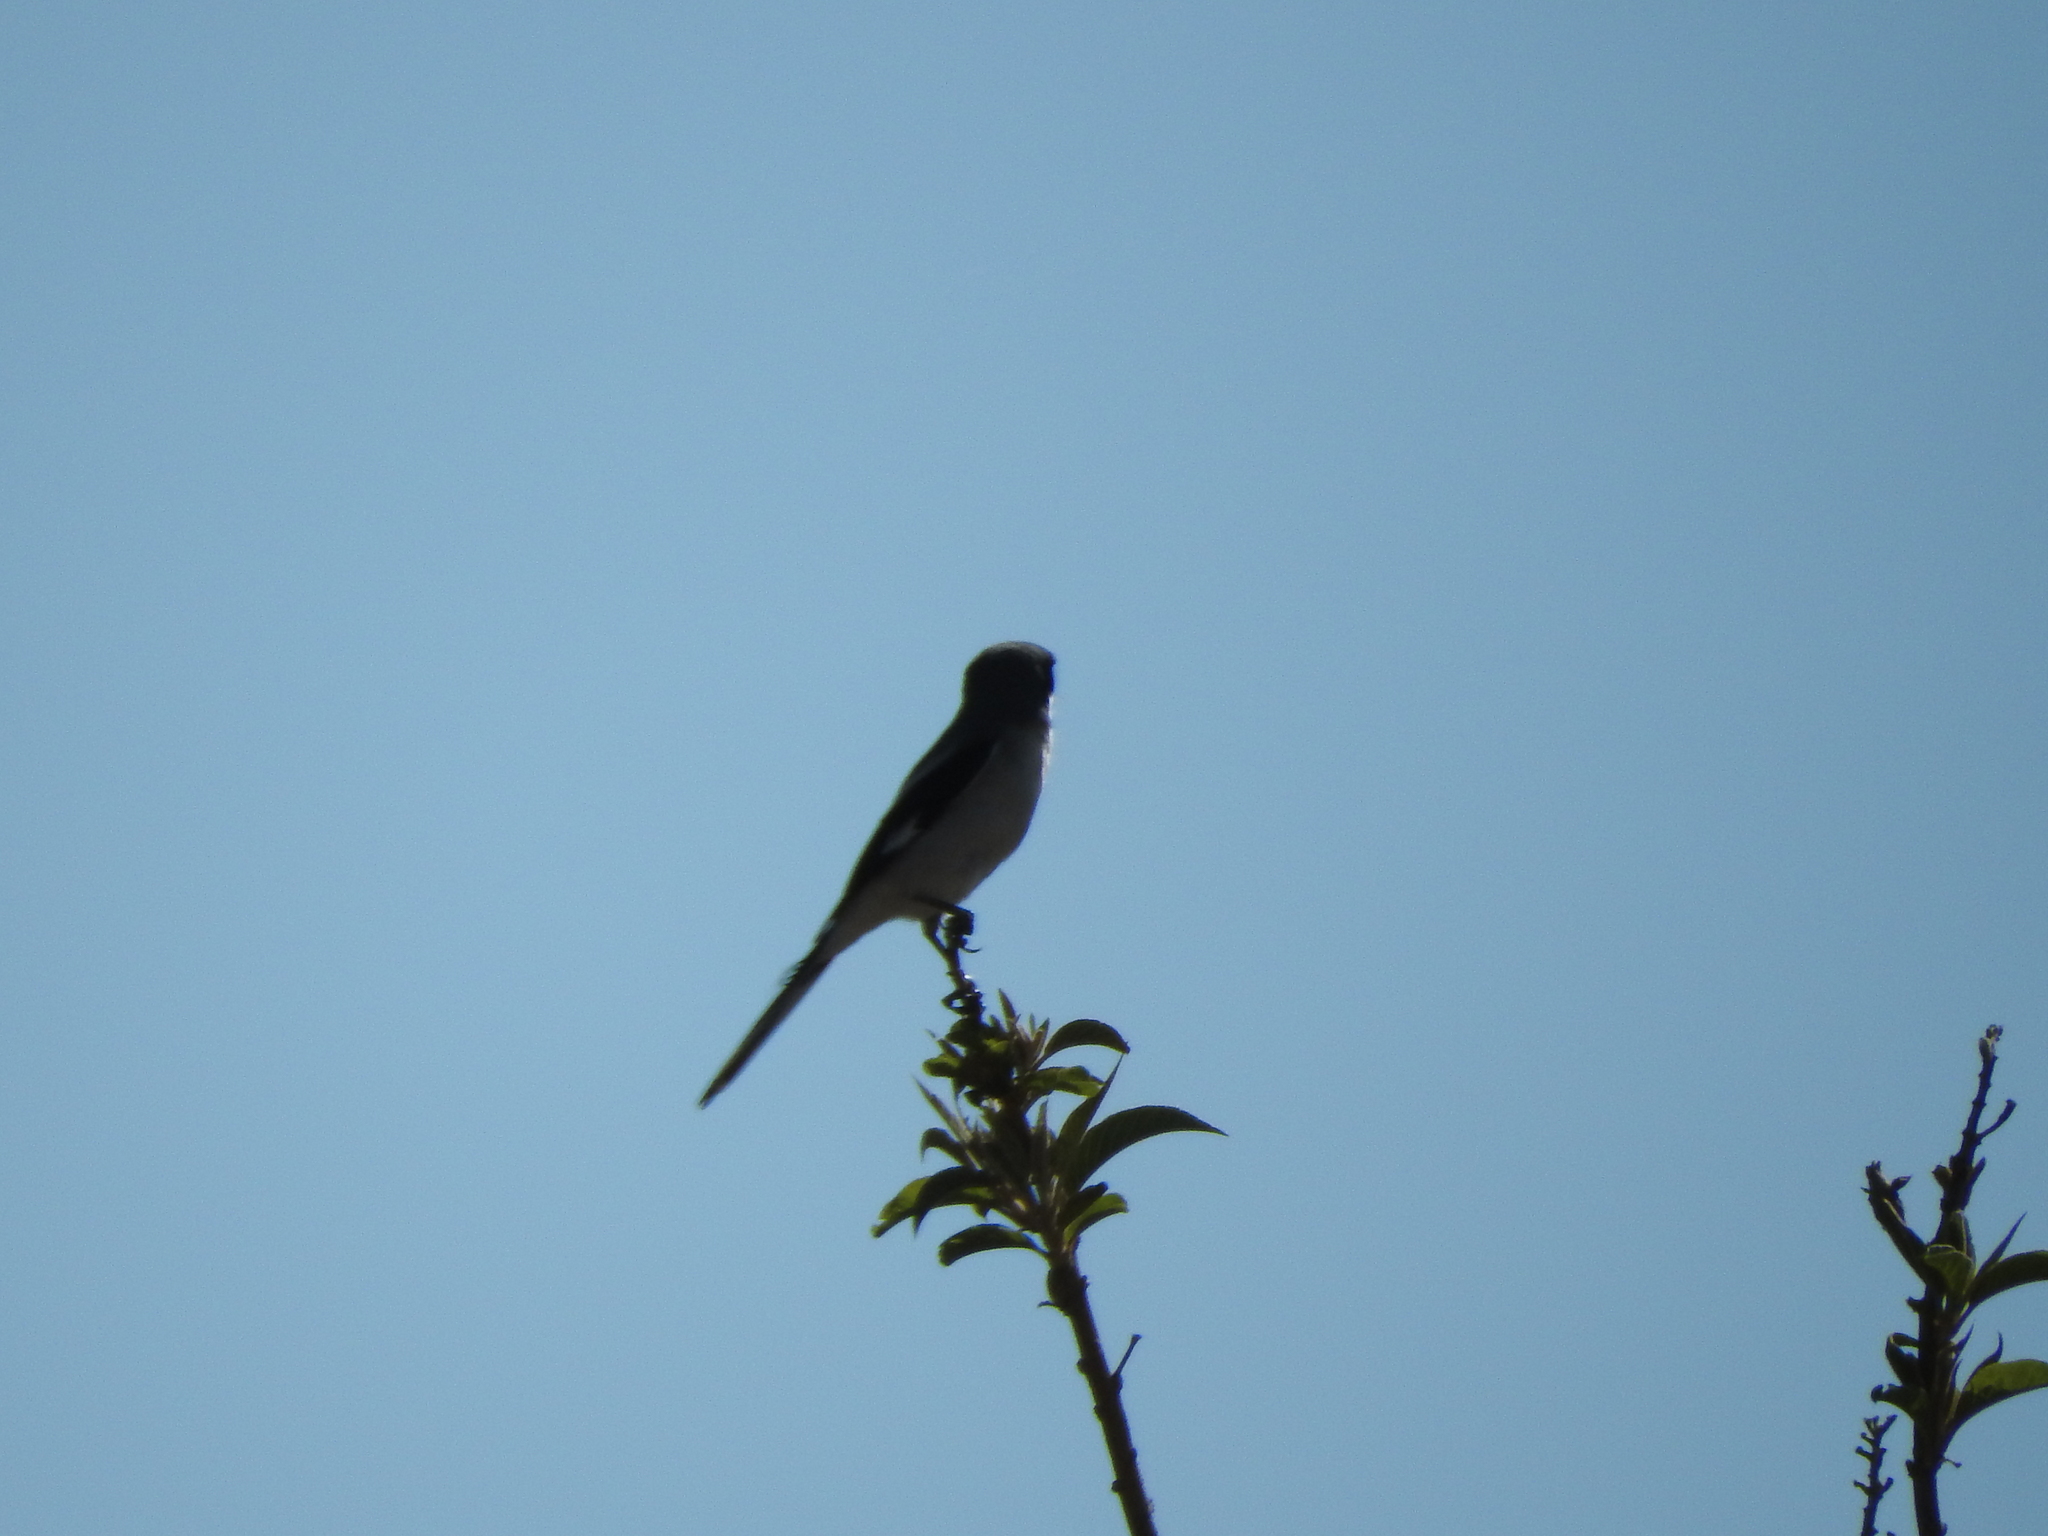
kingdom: Animalia
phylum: Chordata
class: Aves
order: Passeriformes
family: Laniidae
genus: Lanius
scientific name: Lanius ludovicianus
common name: Loggerhead shrike
